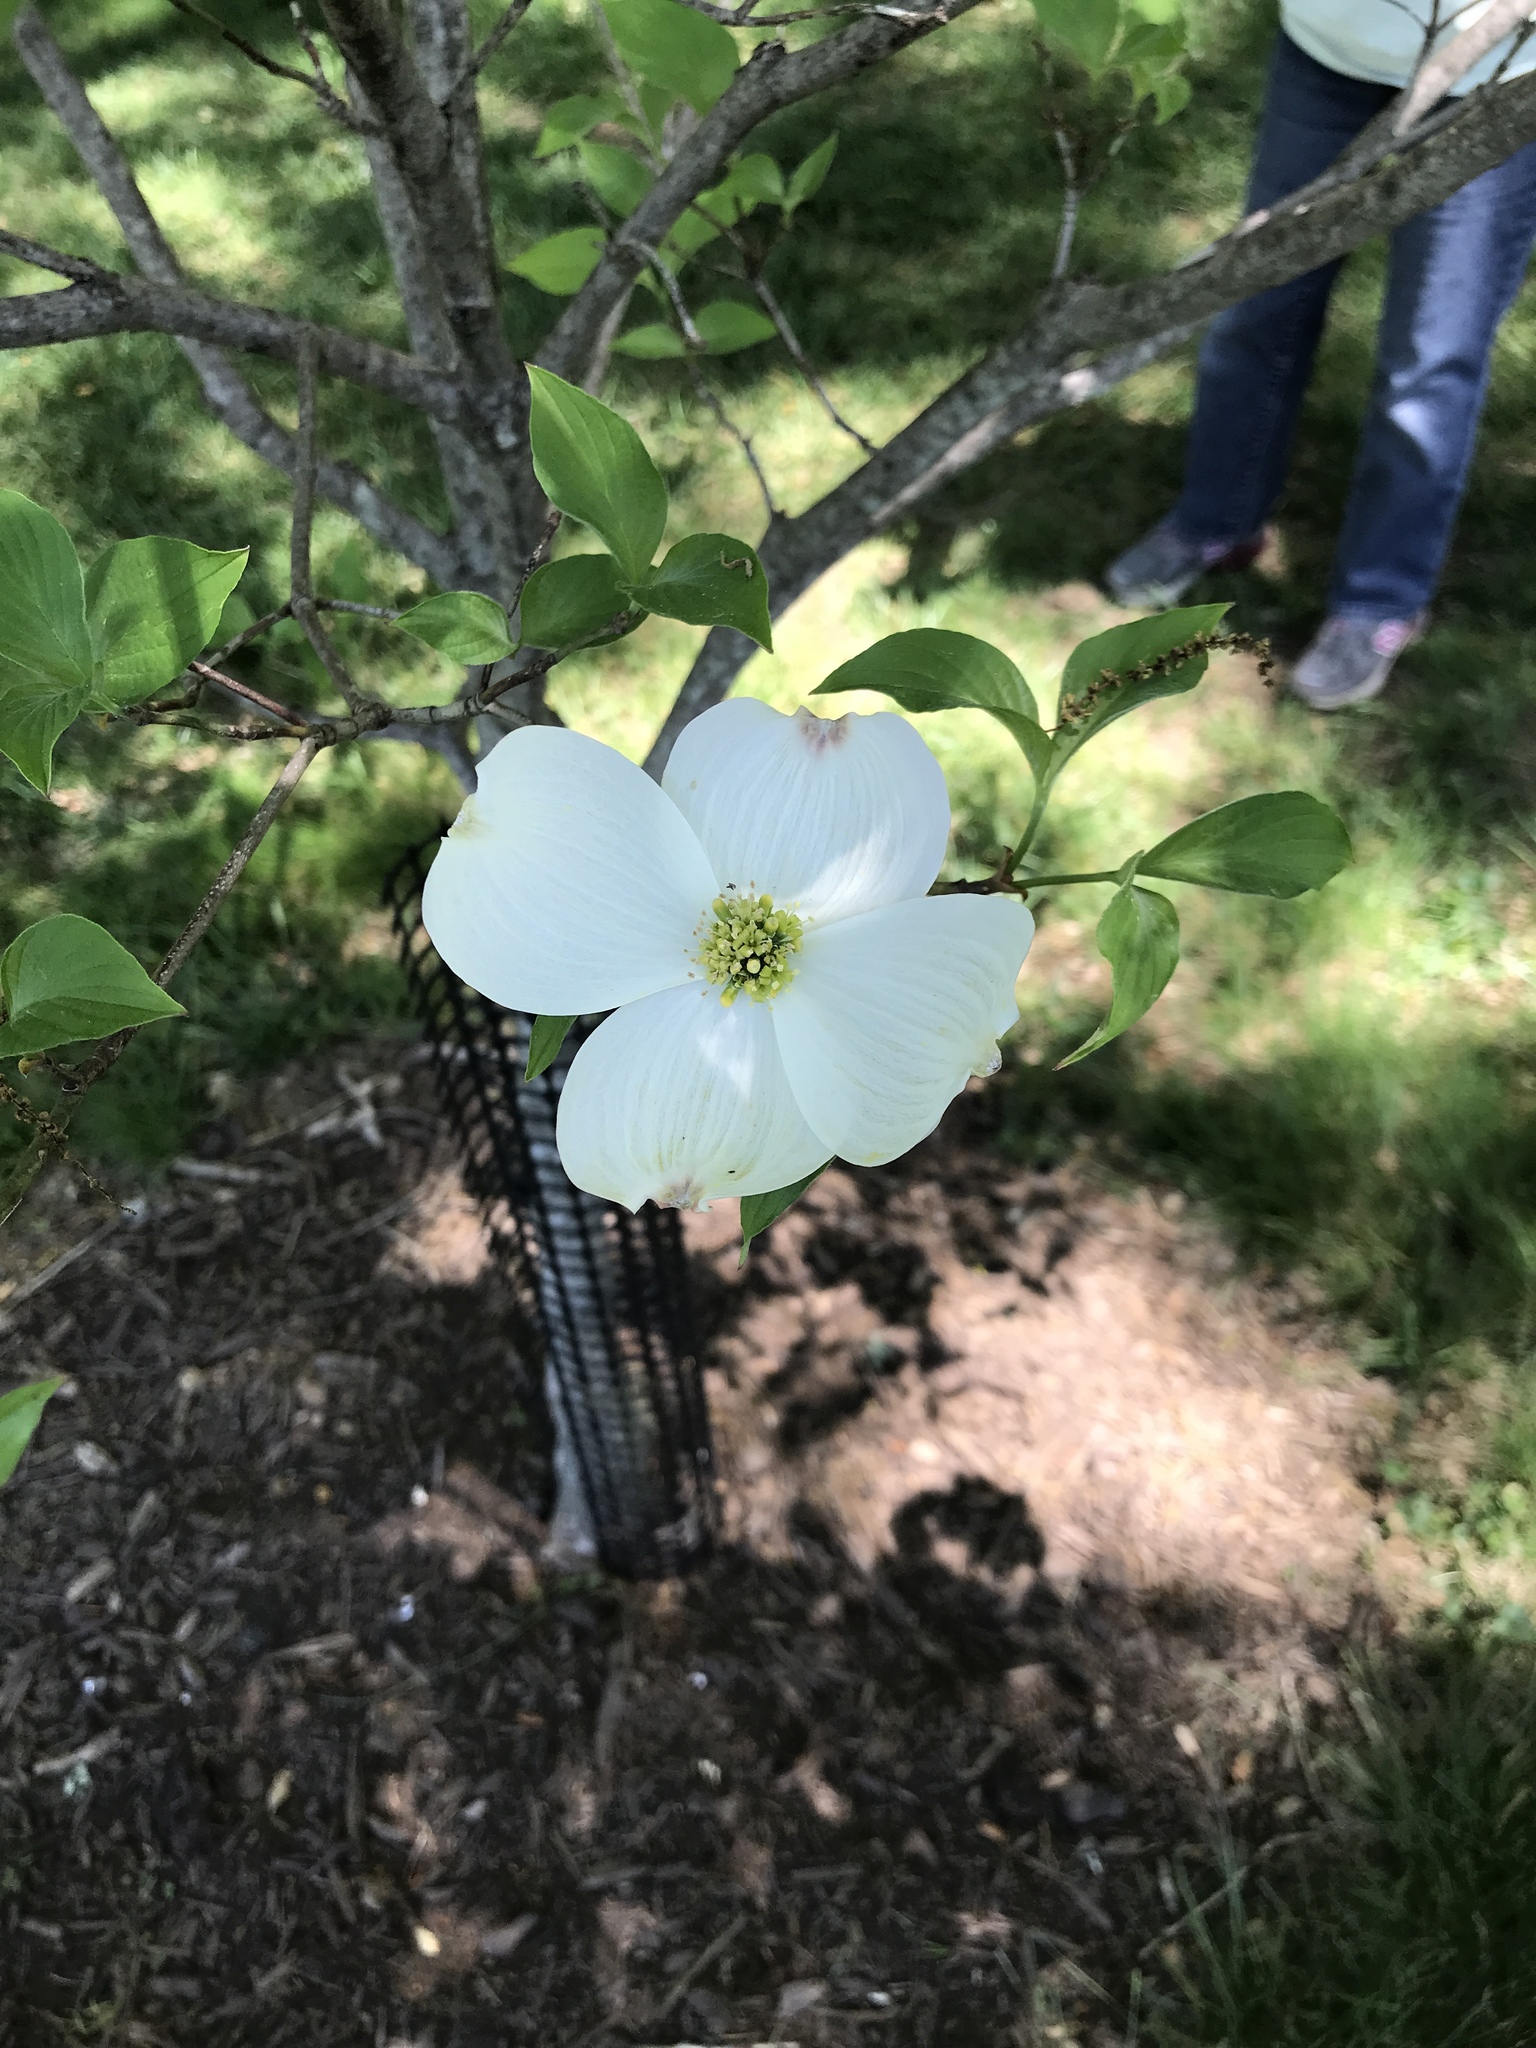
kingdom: Plantae
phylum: Tracheophyta
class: Magnoliopsida
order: Cornales
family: Cornaceae
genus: Cornus
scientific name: Cornus florida
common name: Flowering dogwood
